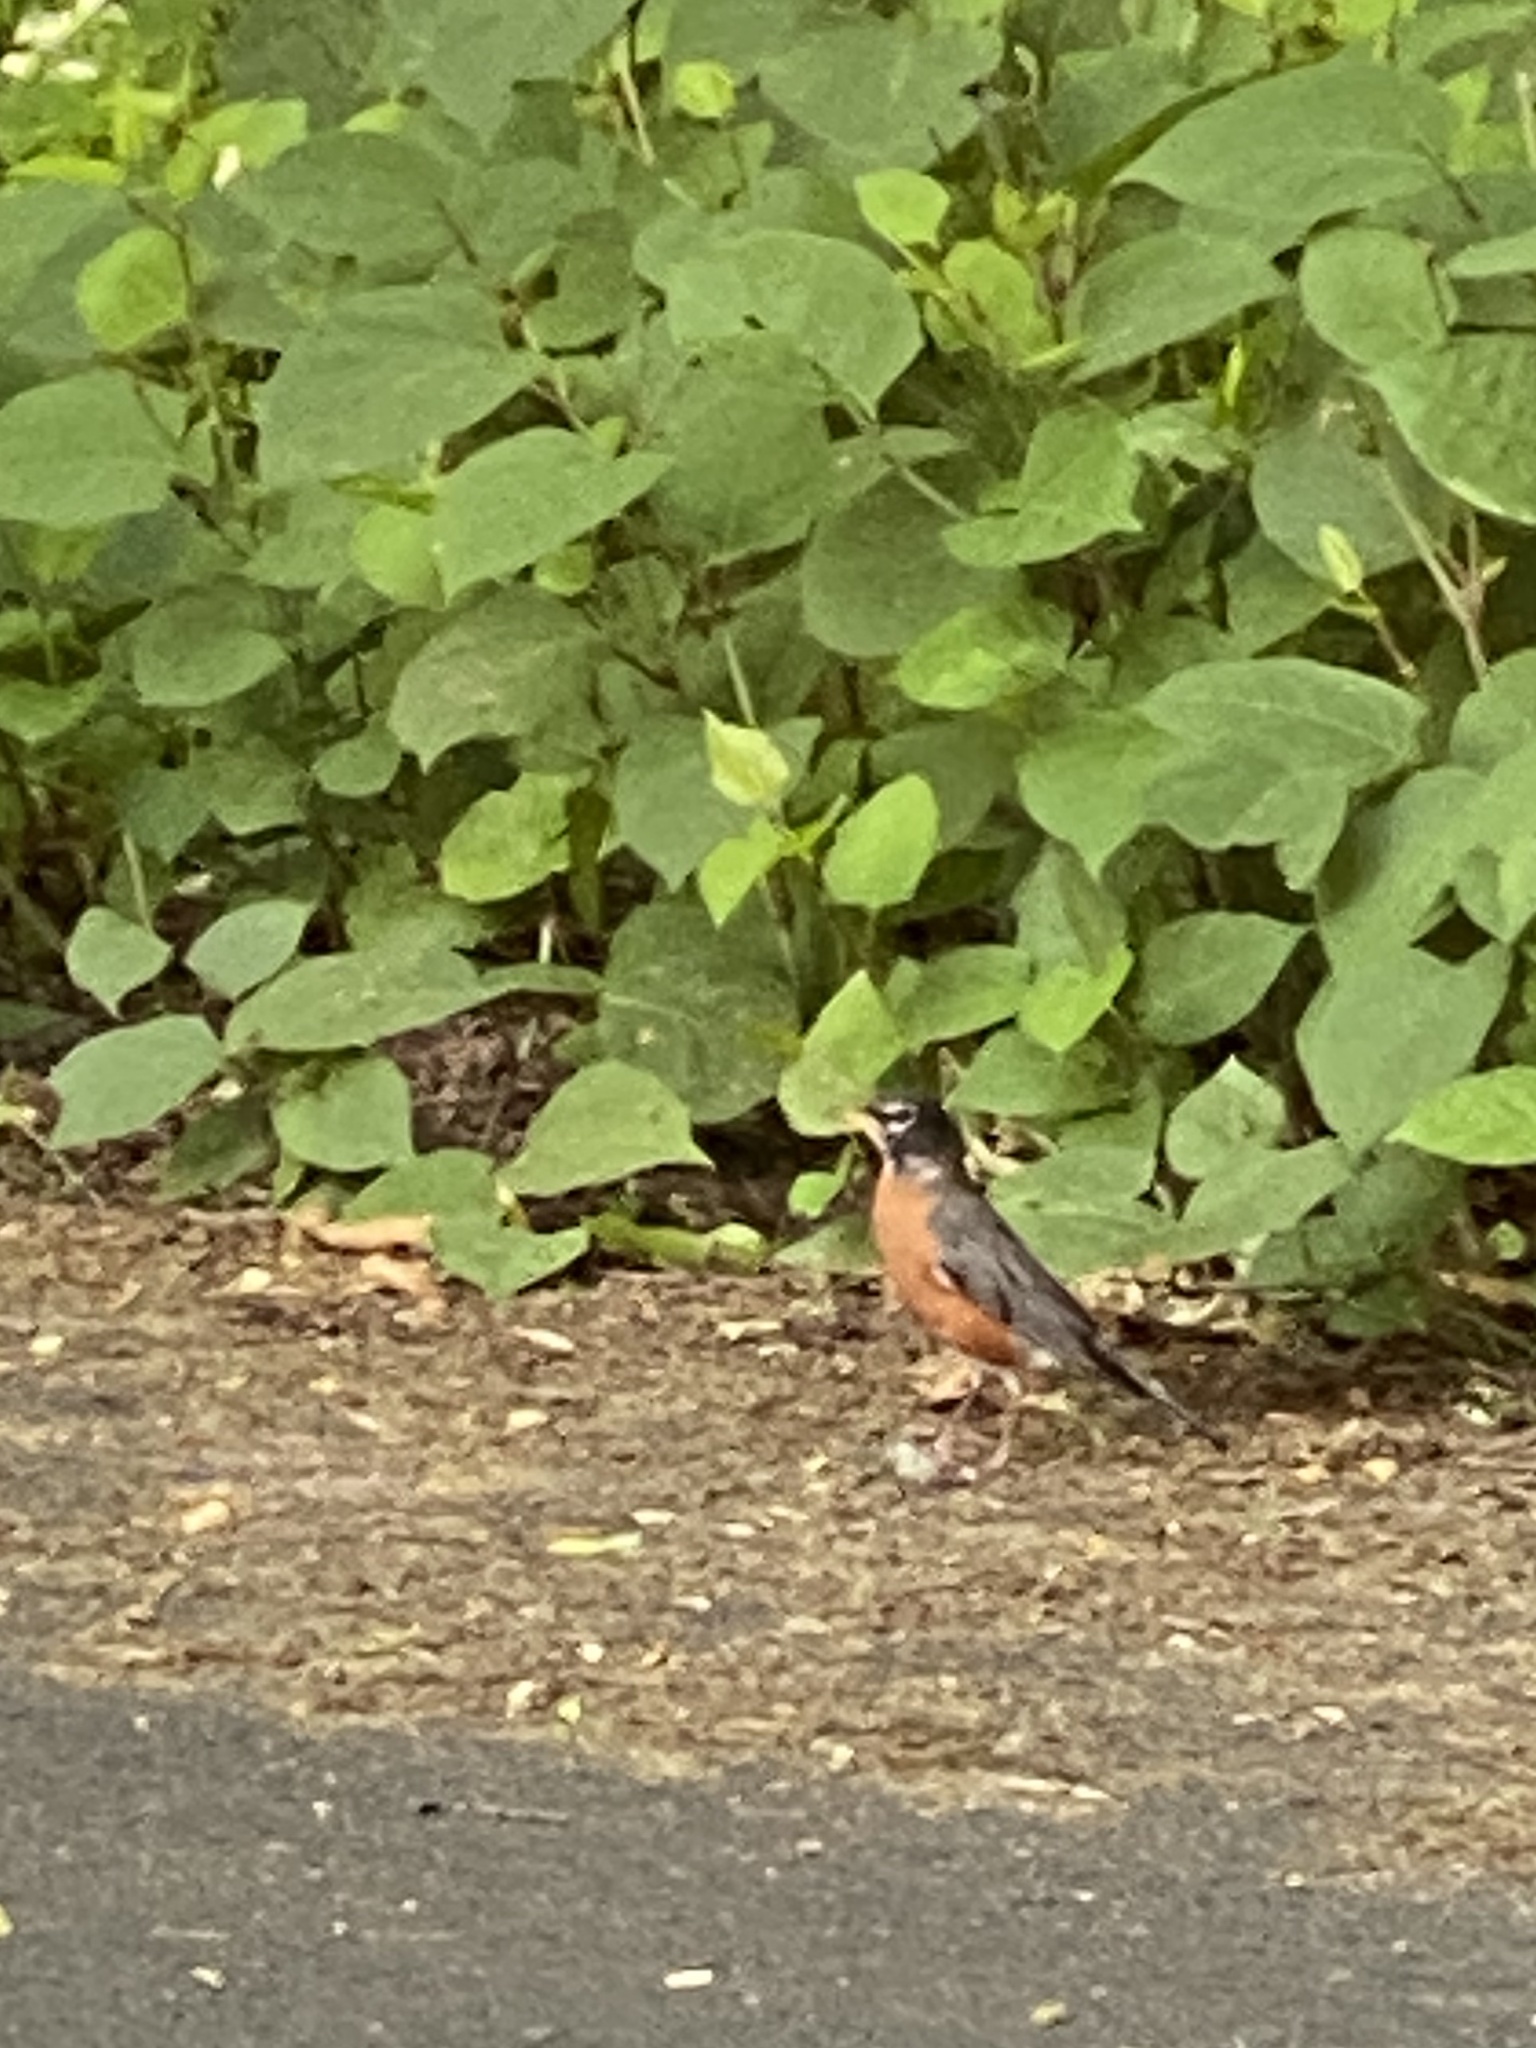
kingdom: Animalia
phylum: Chordata
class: Aves
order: Passeriformes
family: Turdidae
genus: Turdus
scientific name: Turdus migratorius
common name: American robin
